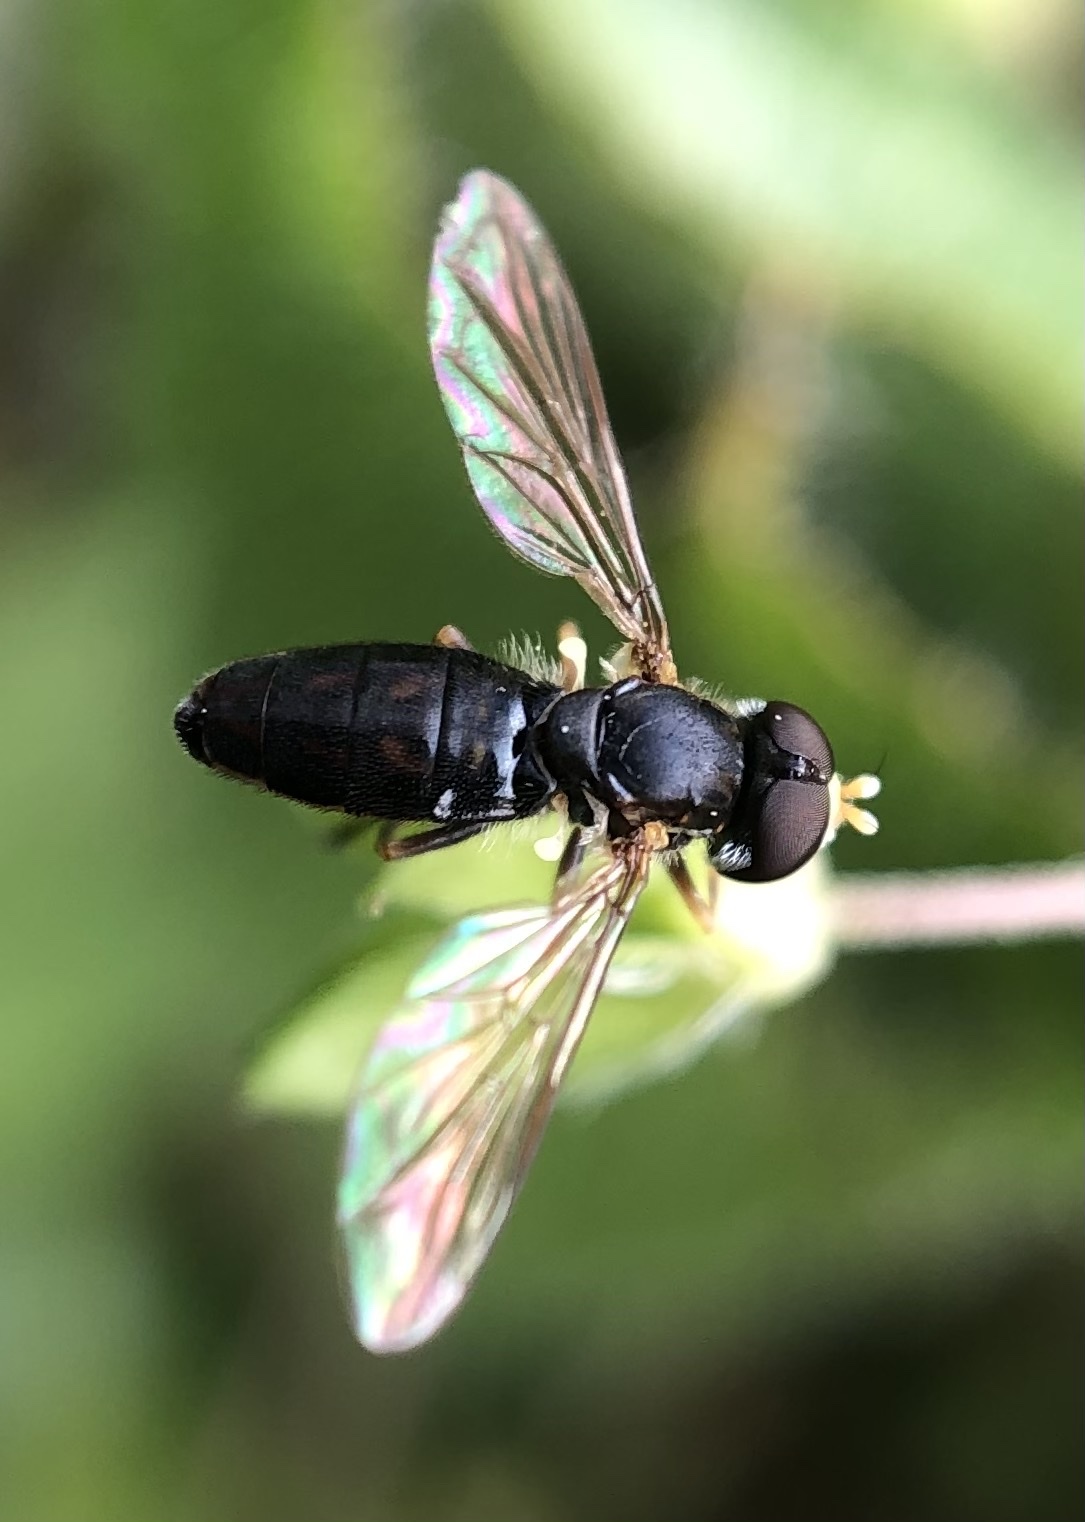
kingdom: Animalia
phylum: Arthropoda
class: Insecta
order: Diptera
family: Syrphidae
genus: Toxomerus
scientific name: Toxomerus marginatus
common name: Syrphid fly
